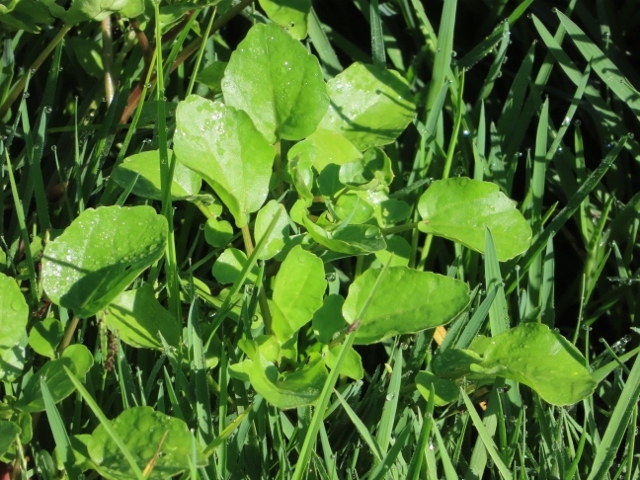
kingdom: Plantae
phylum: Tracheophyta
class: Magnoliopsida
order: Brassicales
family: Brassicaceae
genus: Nasturtium
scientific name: Nasturtium officinale
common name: Watercress
